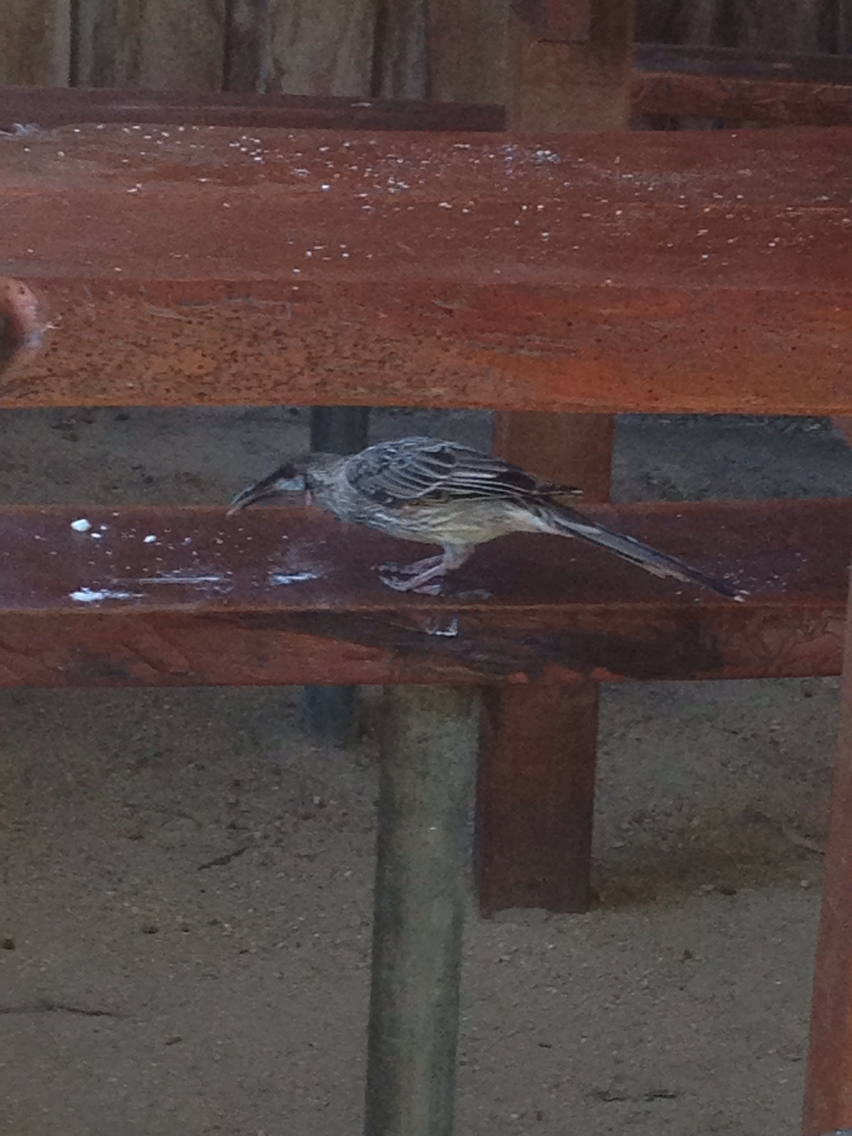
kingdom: Animalia
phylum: Chordata
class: Aves
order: Passeriformes
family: Meliphagidae
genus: Anthochaera
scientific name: Anthochaera carunculata
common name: Red wattlebird
